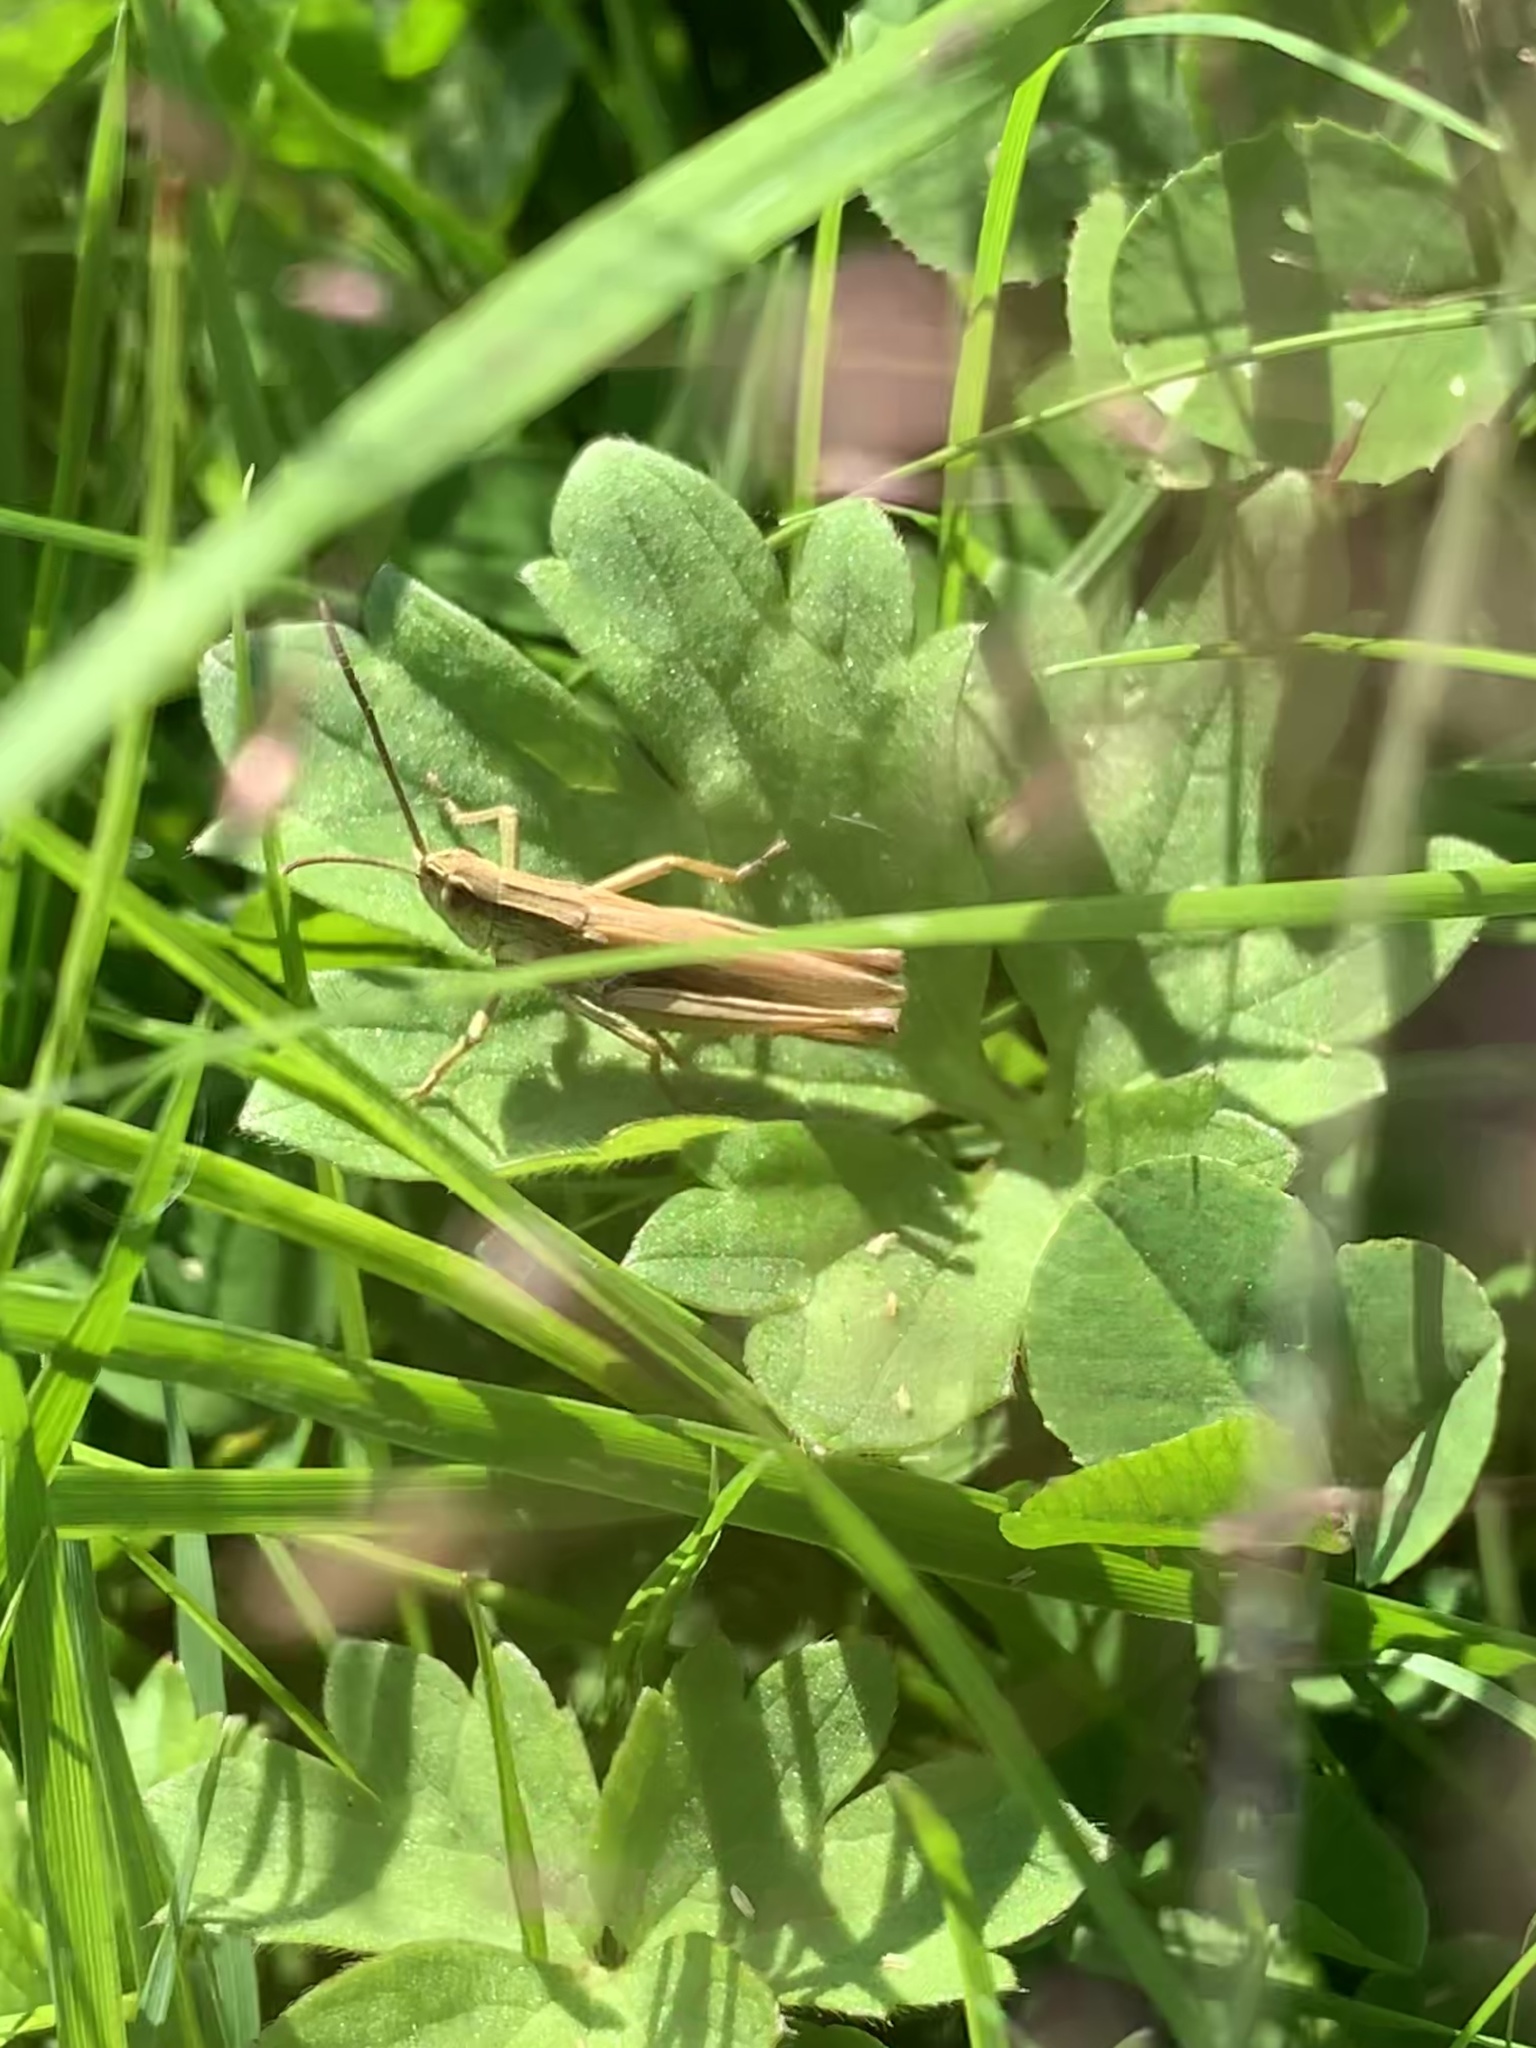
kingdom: Animalia
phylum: Arthropoda
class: Insecta
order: Orthoptera
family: Acrididae
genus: Chorthippus
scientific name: Chorthippus albomarginatus
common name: Lesser marsh grasshopper
